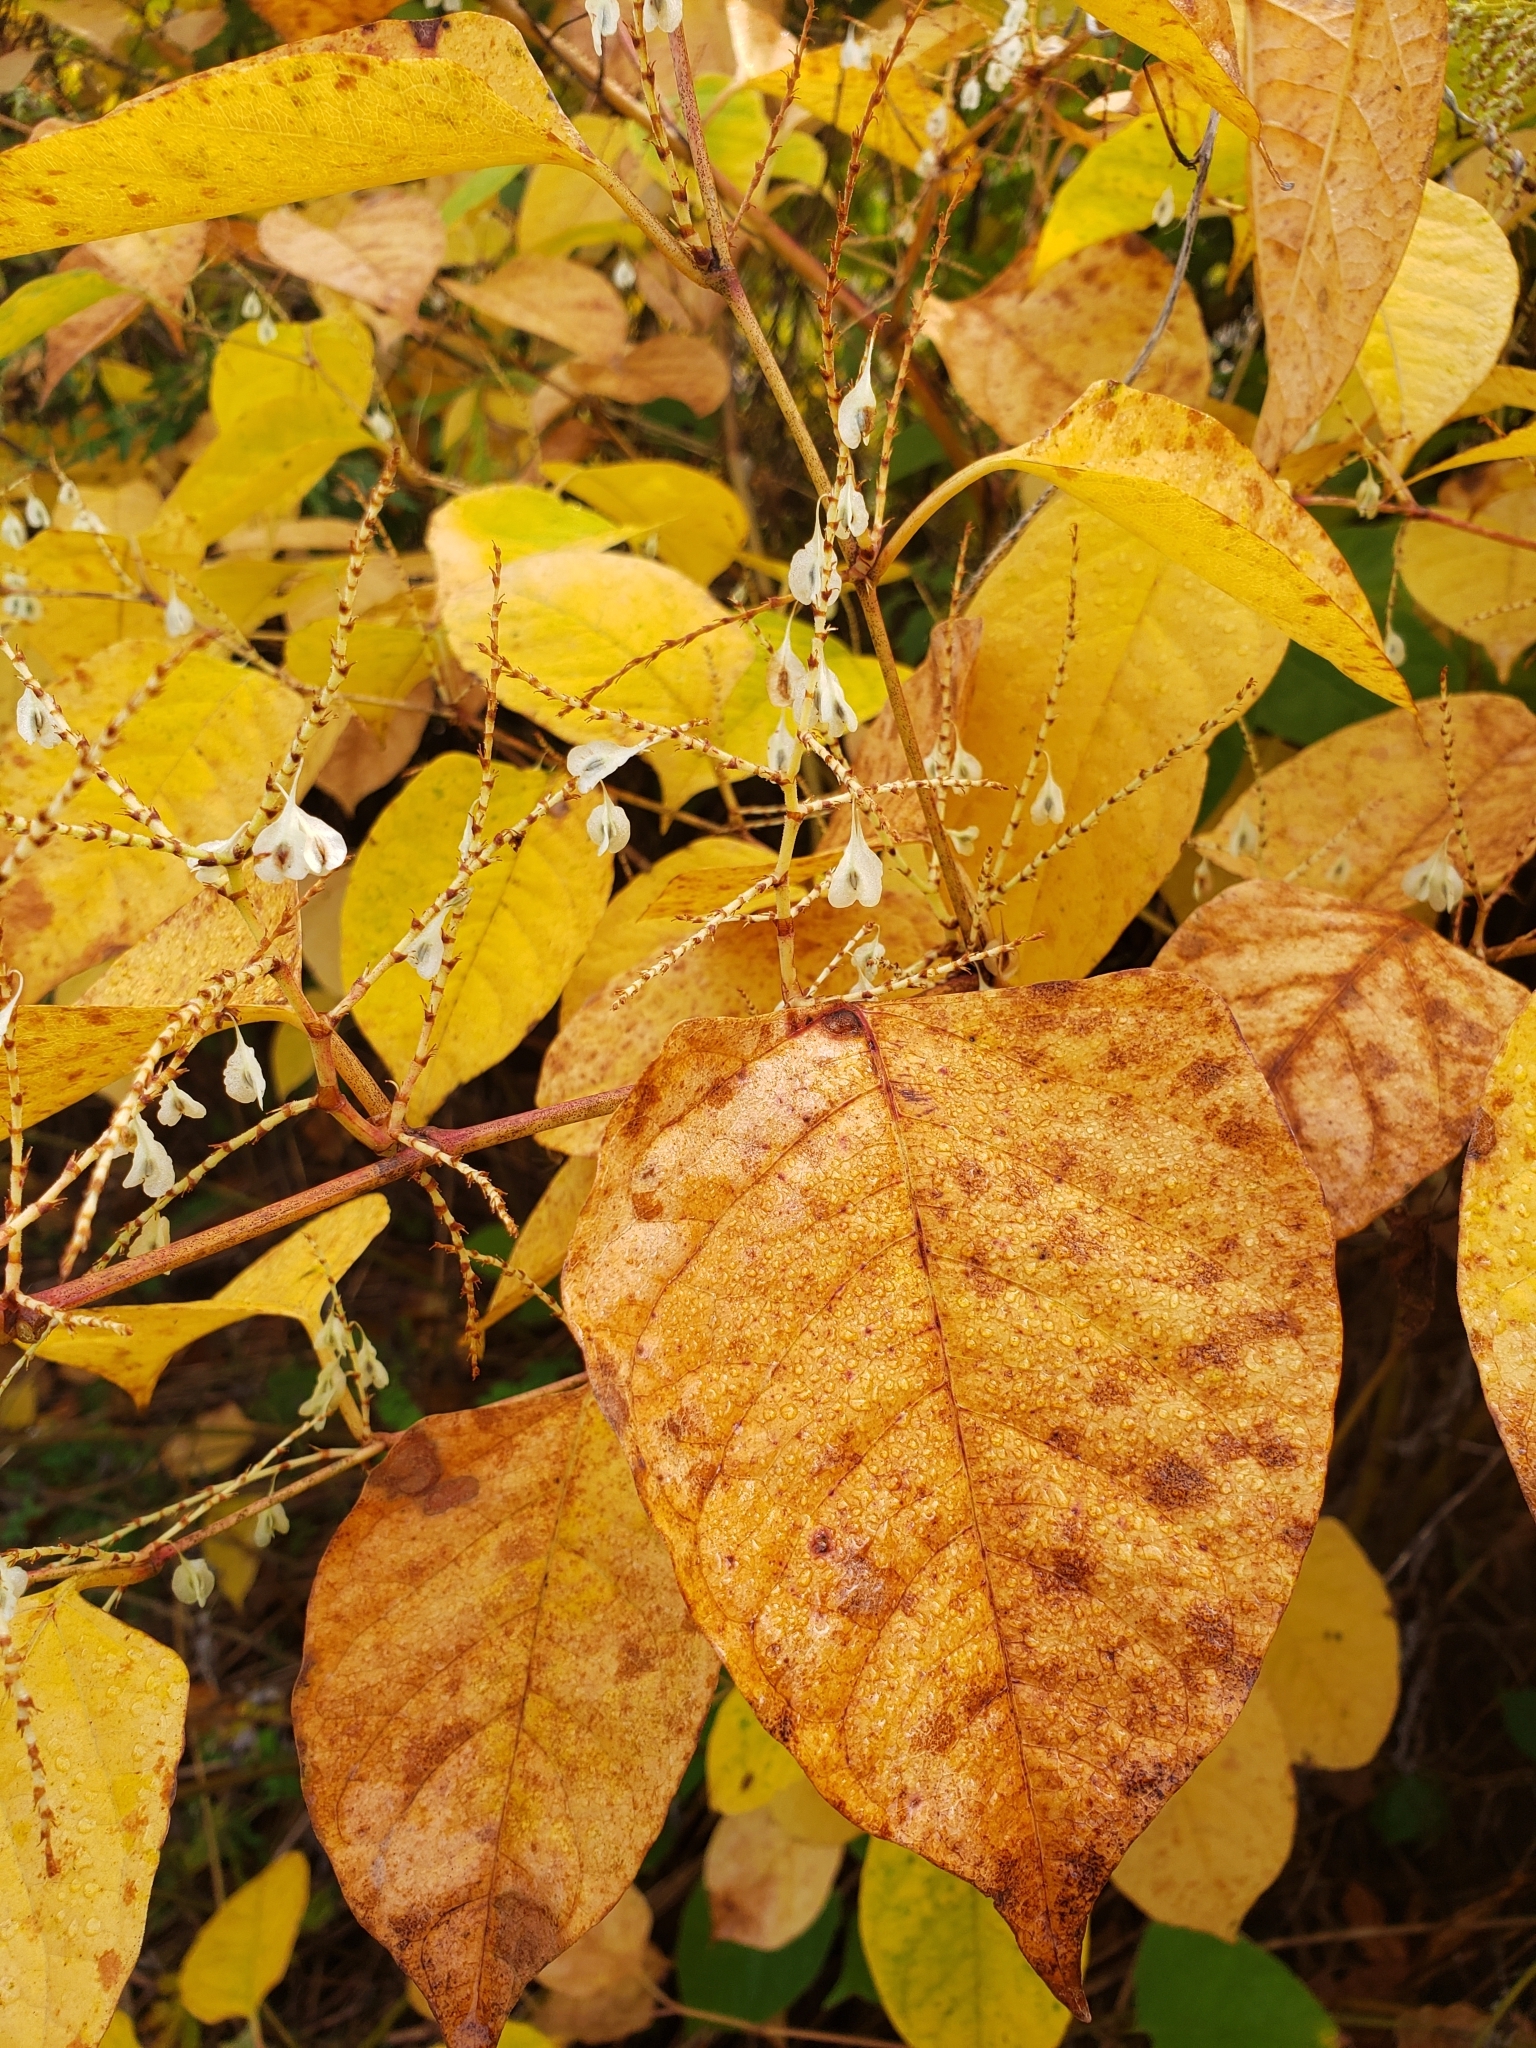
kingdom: Plantae
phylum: Tracheophyta
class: Magnoliopsida
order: Caryophyllales
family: Polygonaceae
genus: Reynoutria
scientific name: Reynoutria japonica
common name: Japanese knotweed
